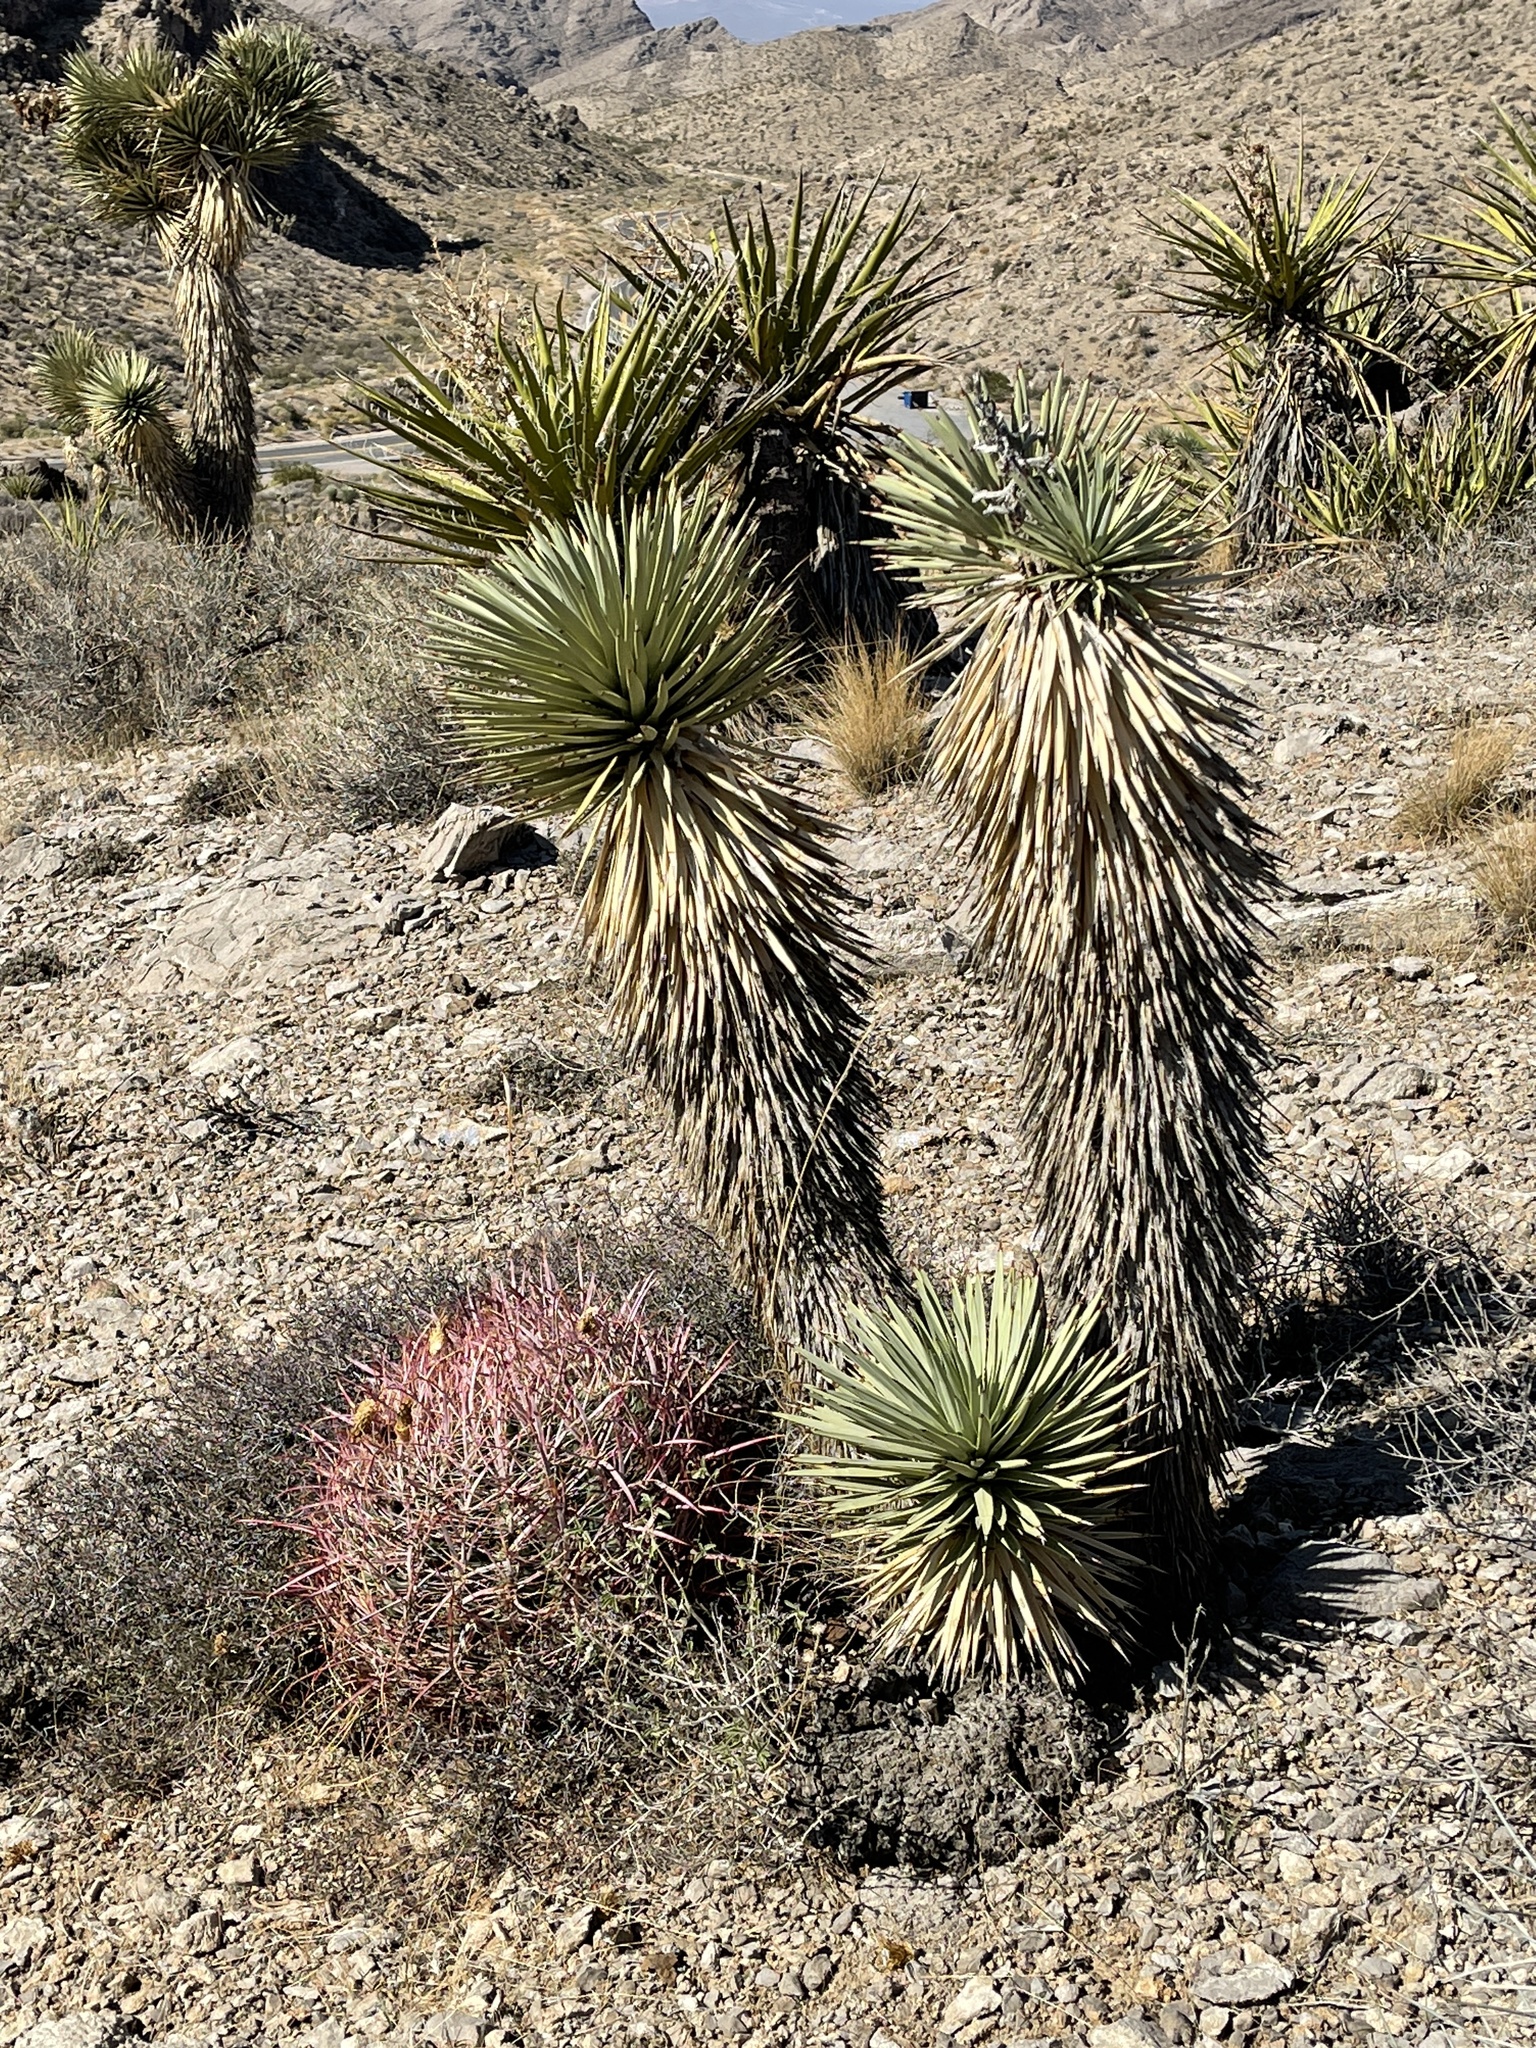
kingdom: Plantae
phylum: Tracheophyta
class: Magnoliopsida
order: Caryophyllales
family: Cactaceae
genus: Ferocactus
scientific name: Ferocactus cylindraceus
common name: California barrel cactus
